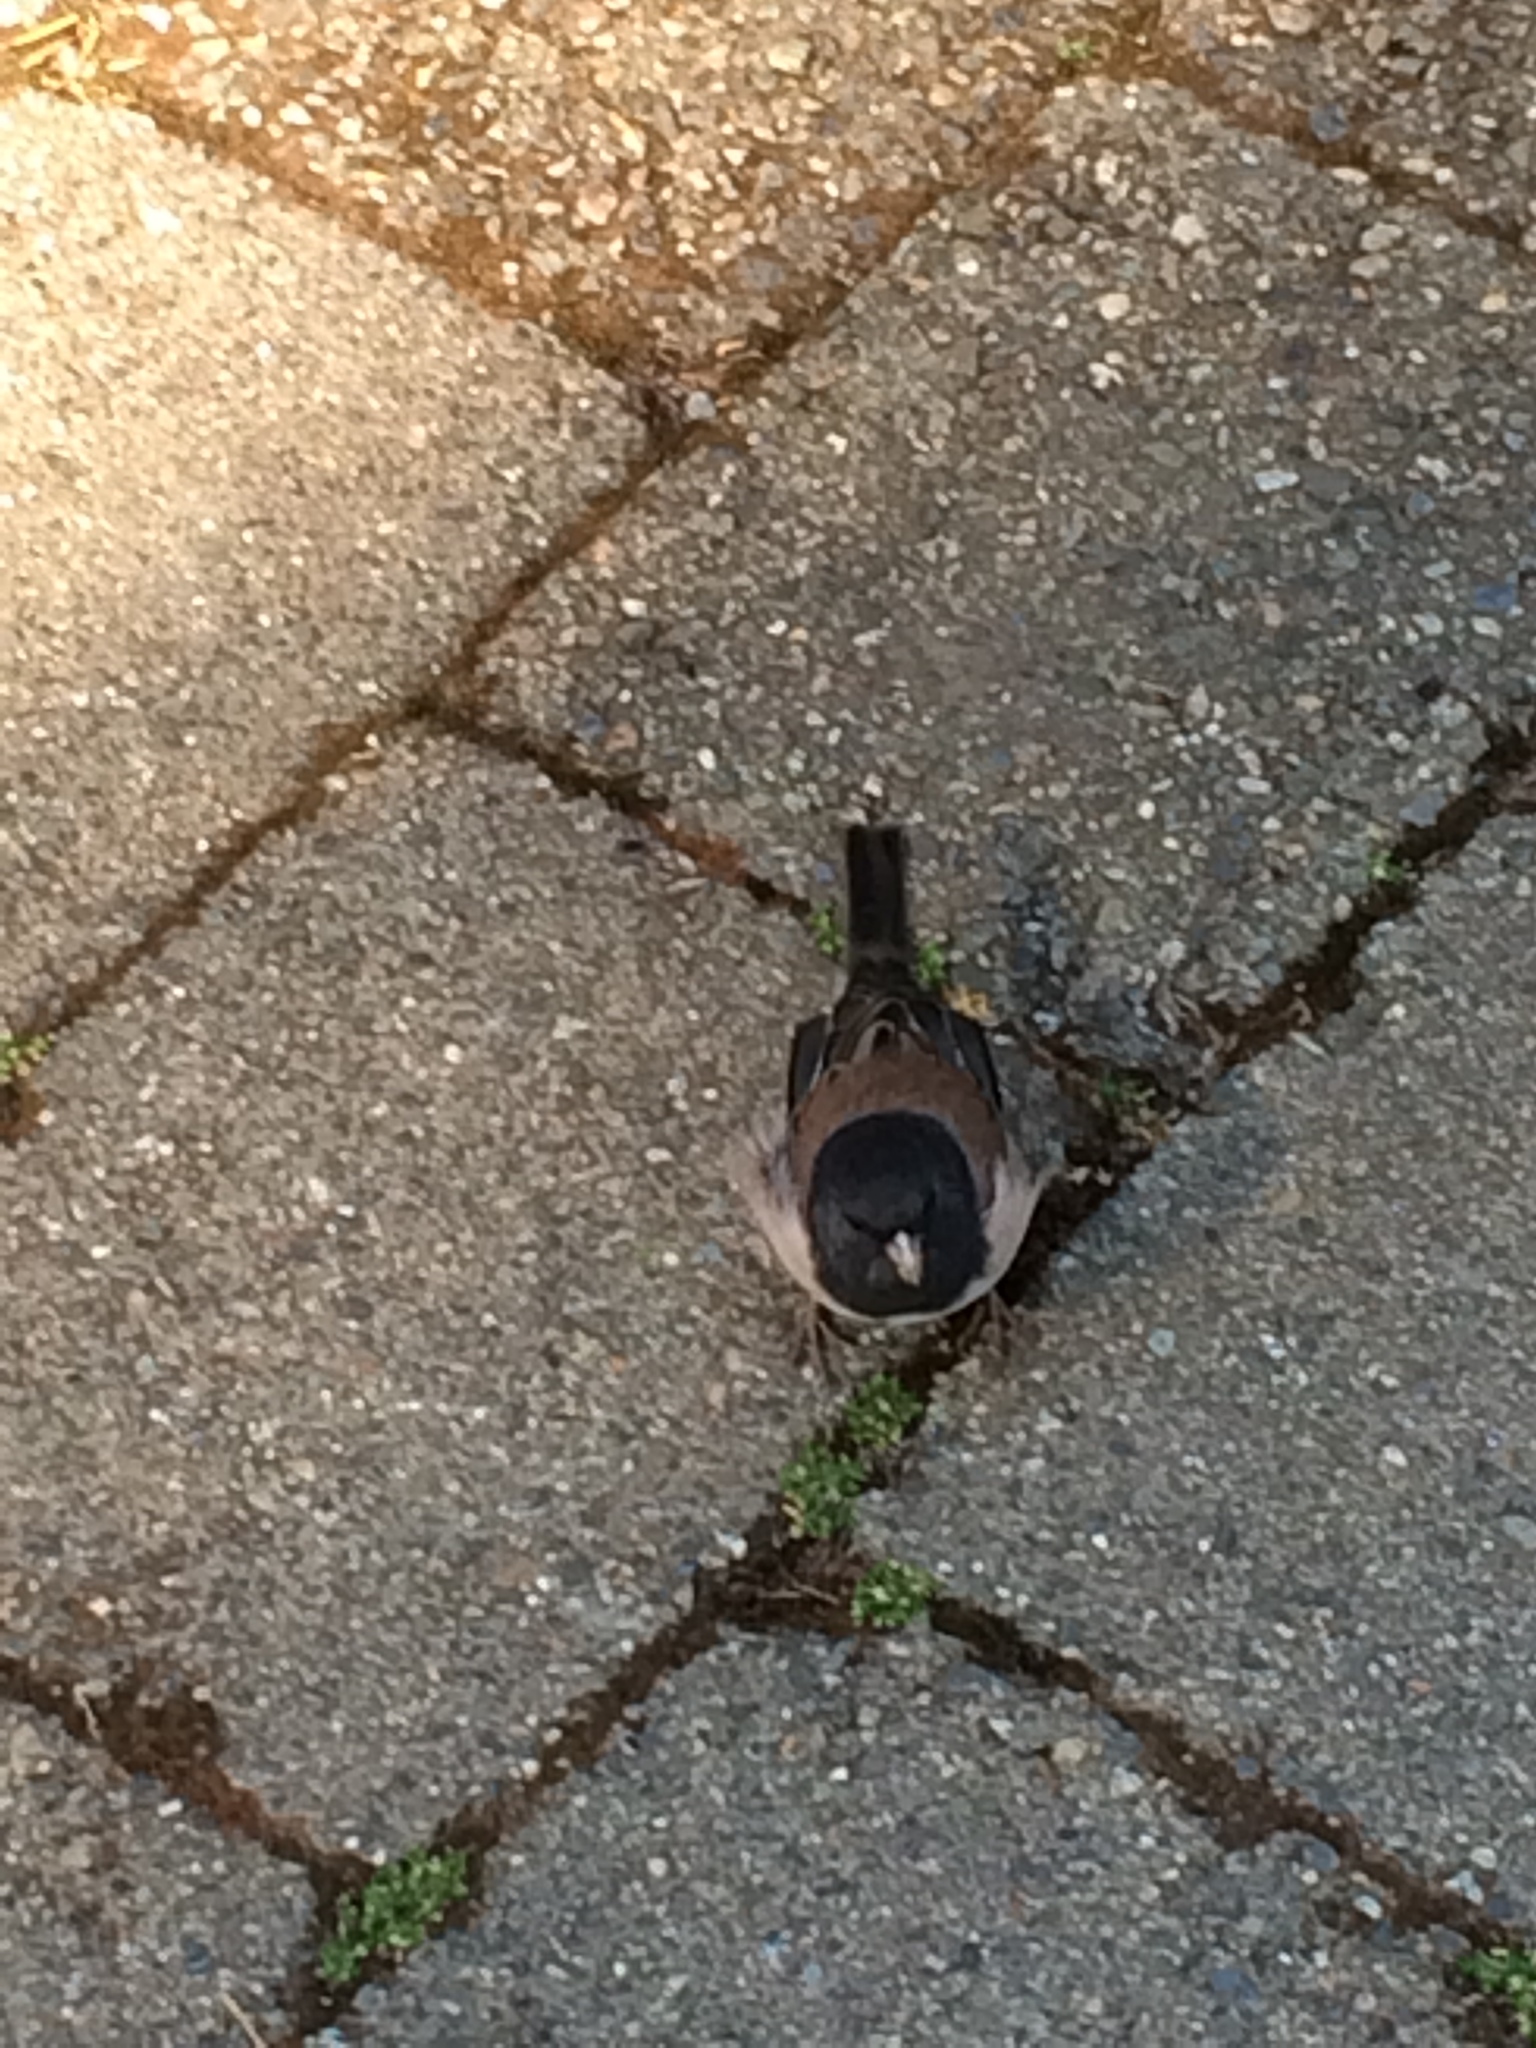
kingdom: Animalia
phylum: Chordata
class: Aves
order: Passeriformes
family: Passerellidae
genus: Junco
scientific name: Junco hyemalis
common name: Dark-eyed junco
